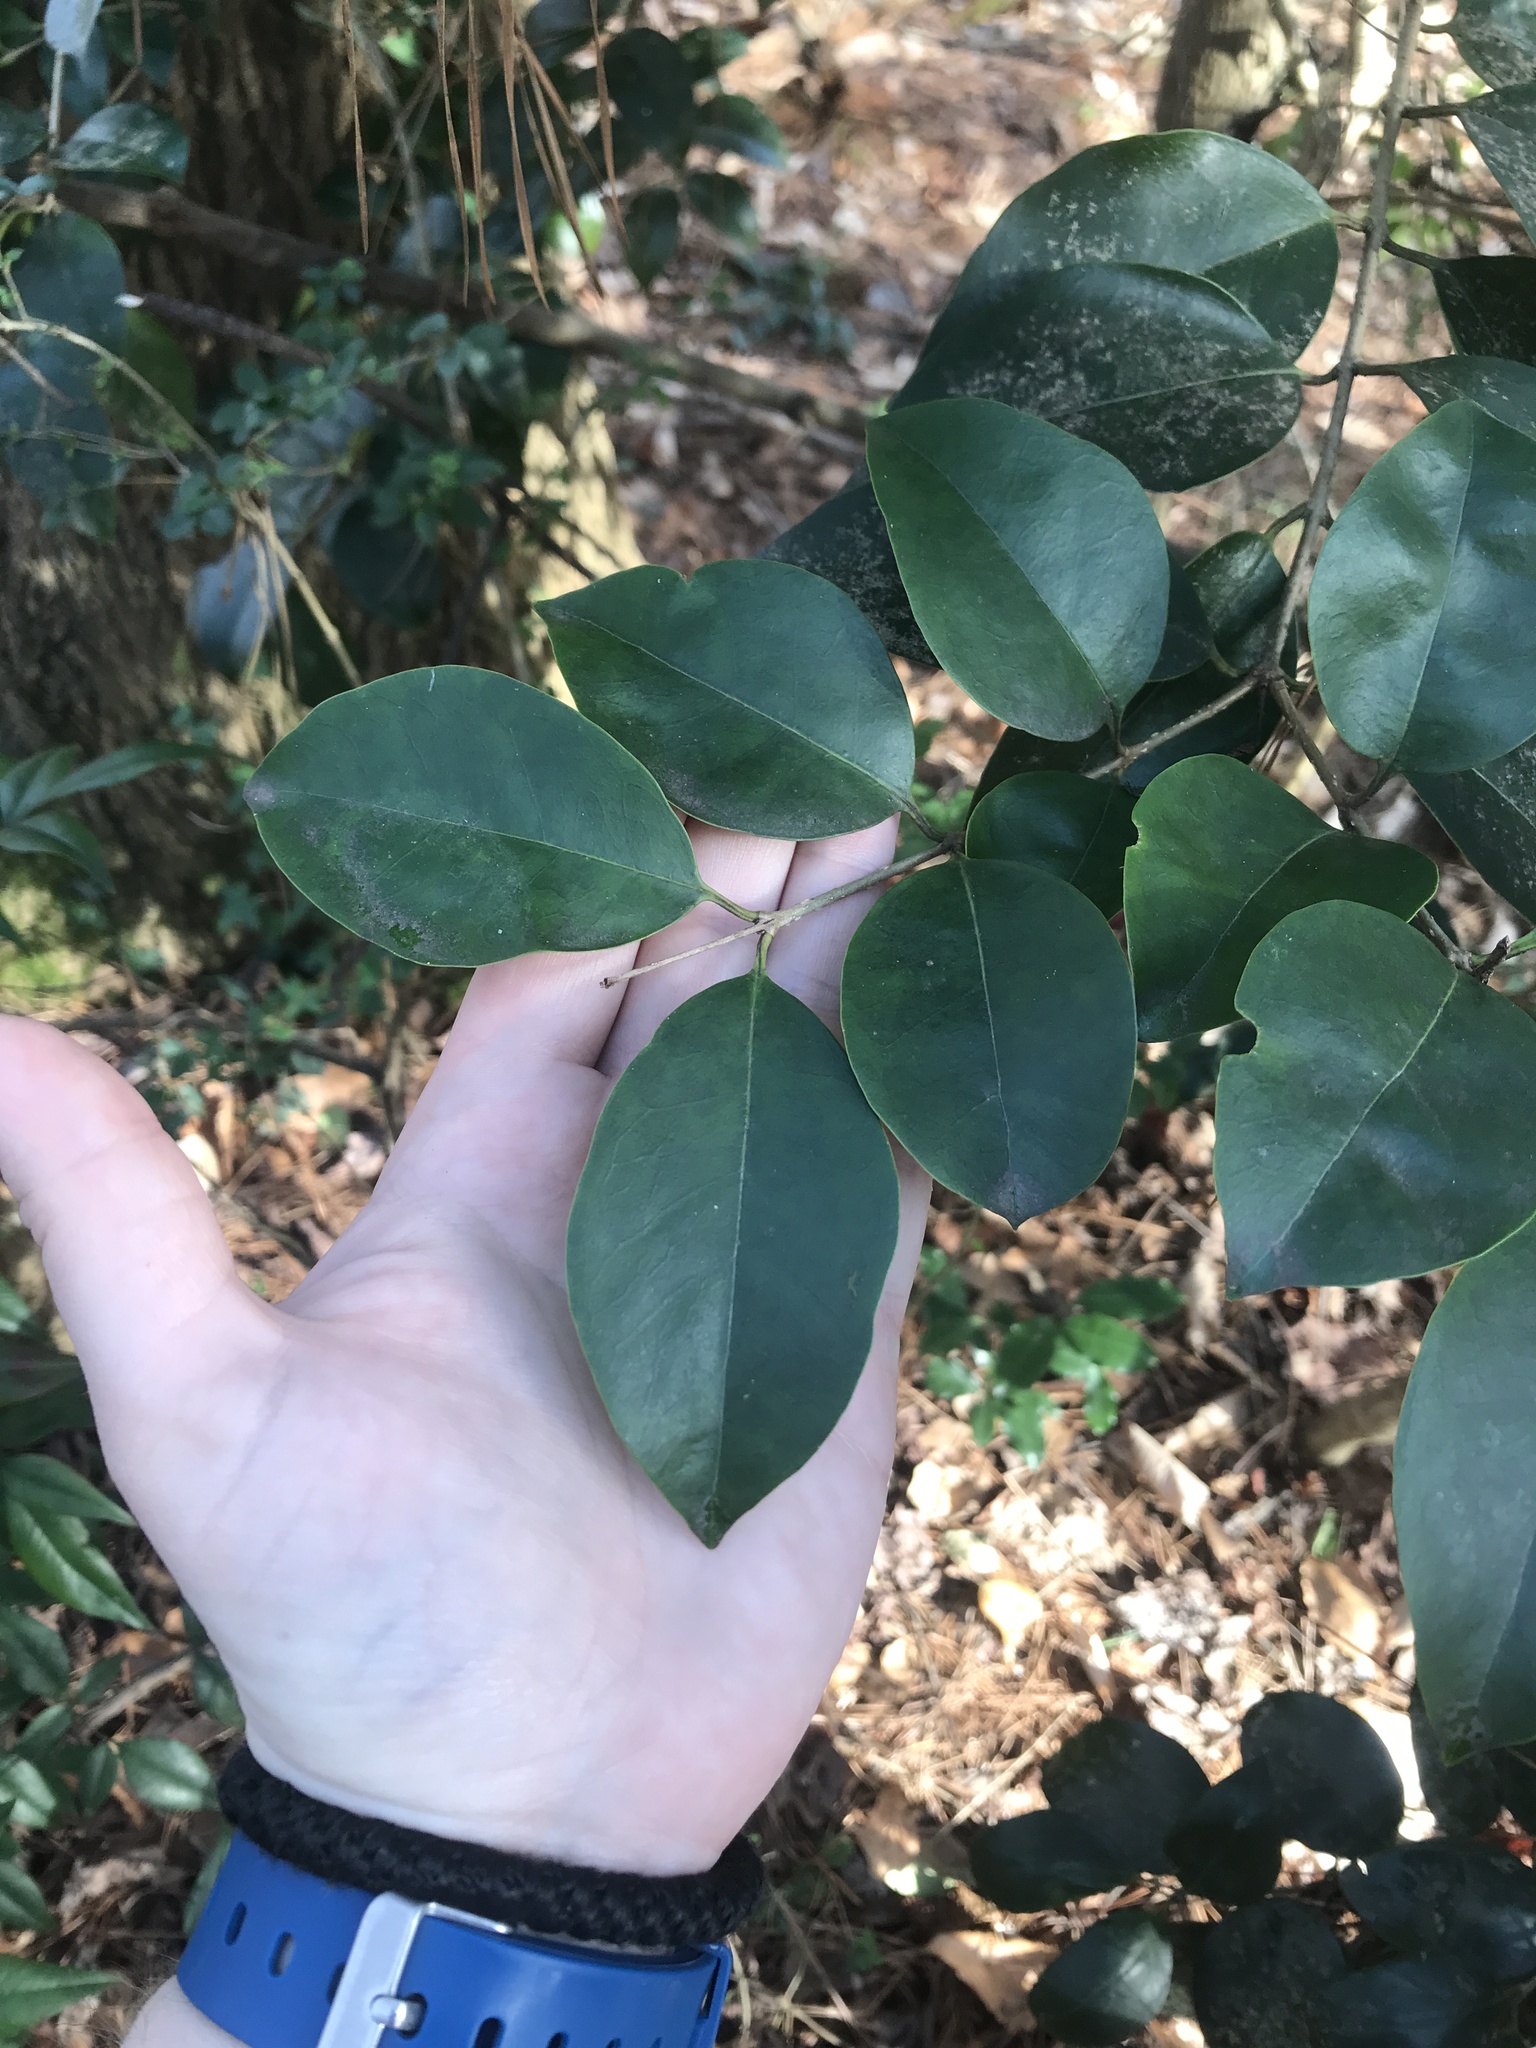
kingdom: Plantae
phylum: Tracheophyta
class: Magnoliopsida
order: Lamiales
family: Oleaceae
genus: Ligustrum
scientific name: Ligustrum lucidum
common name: Glossy privet
